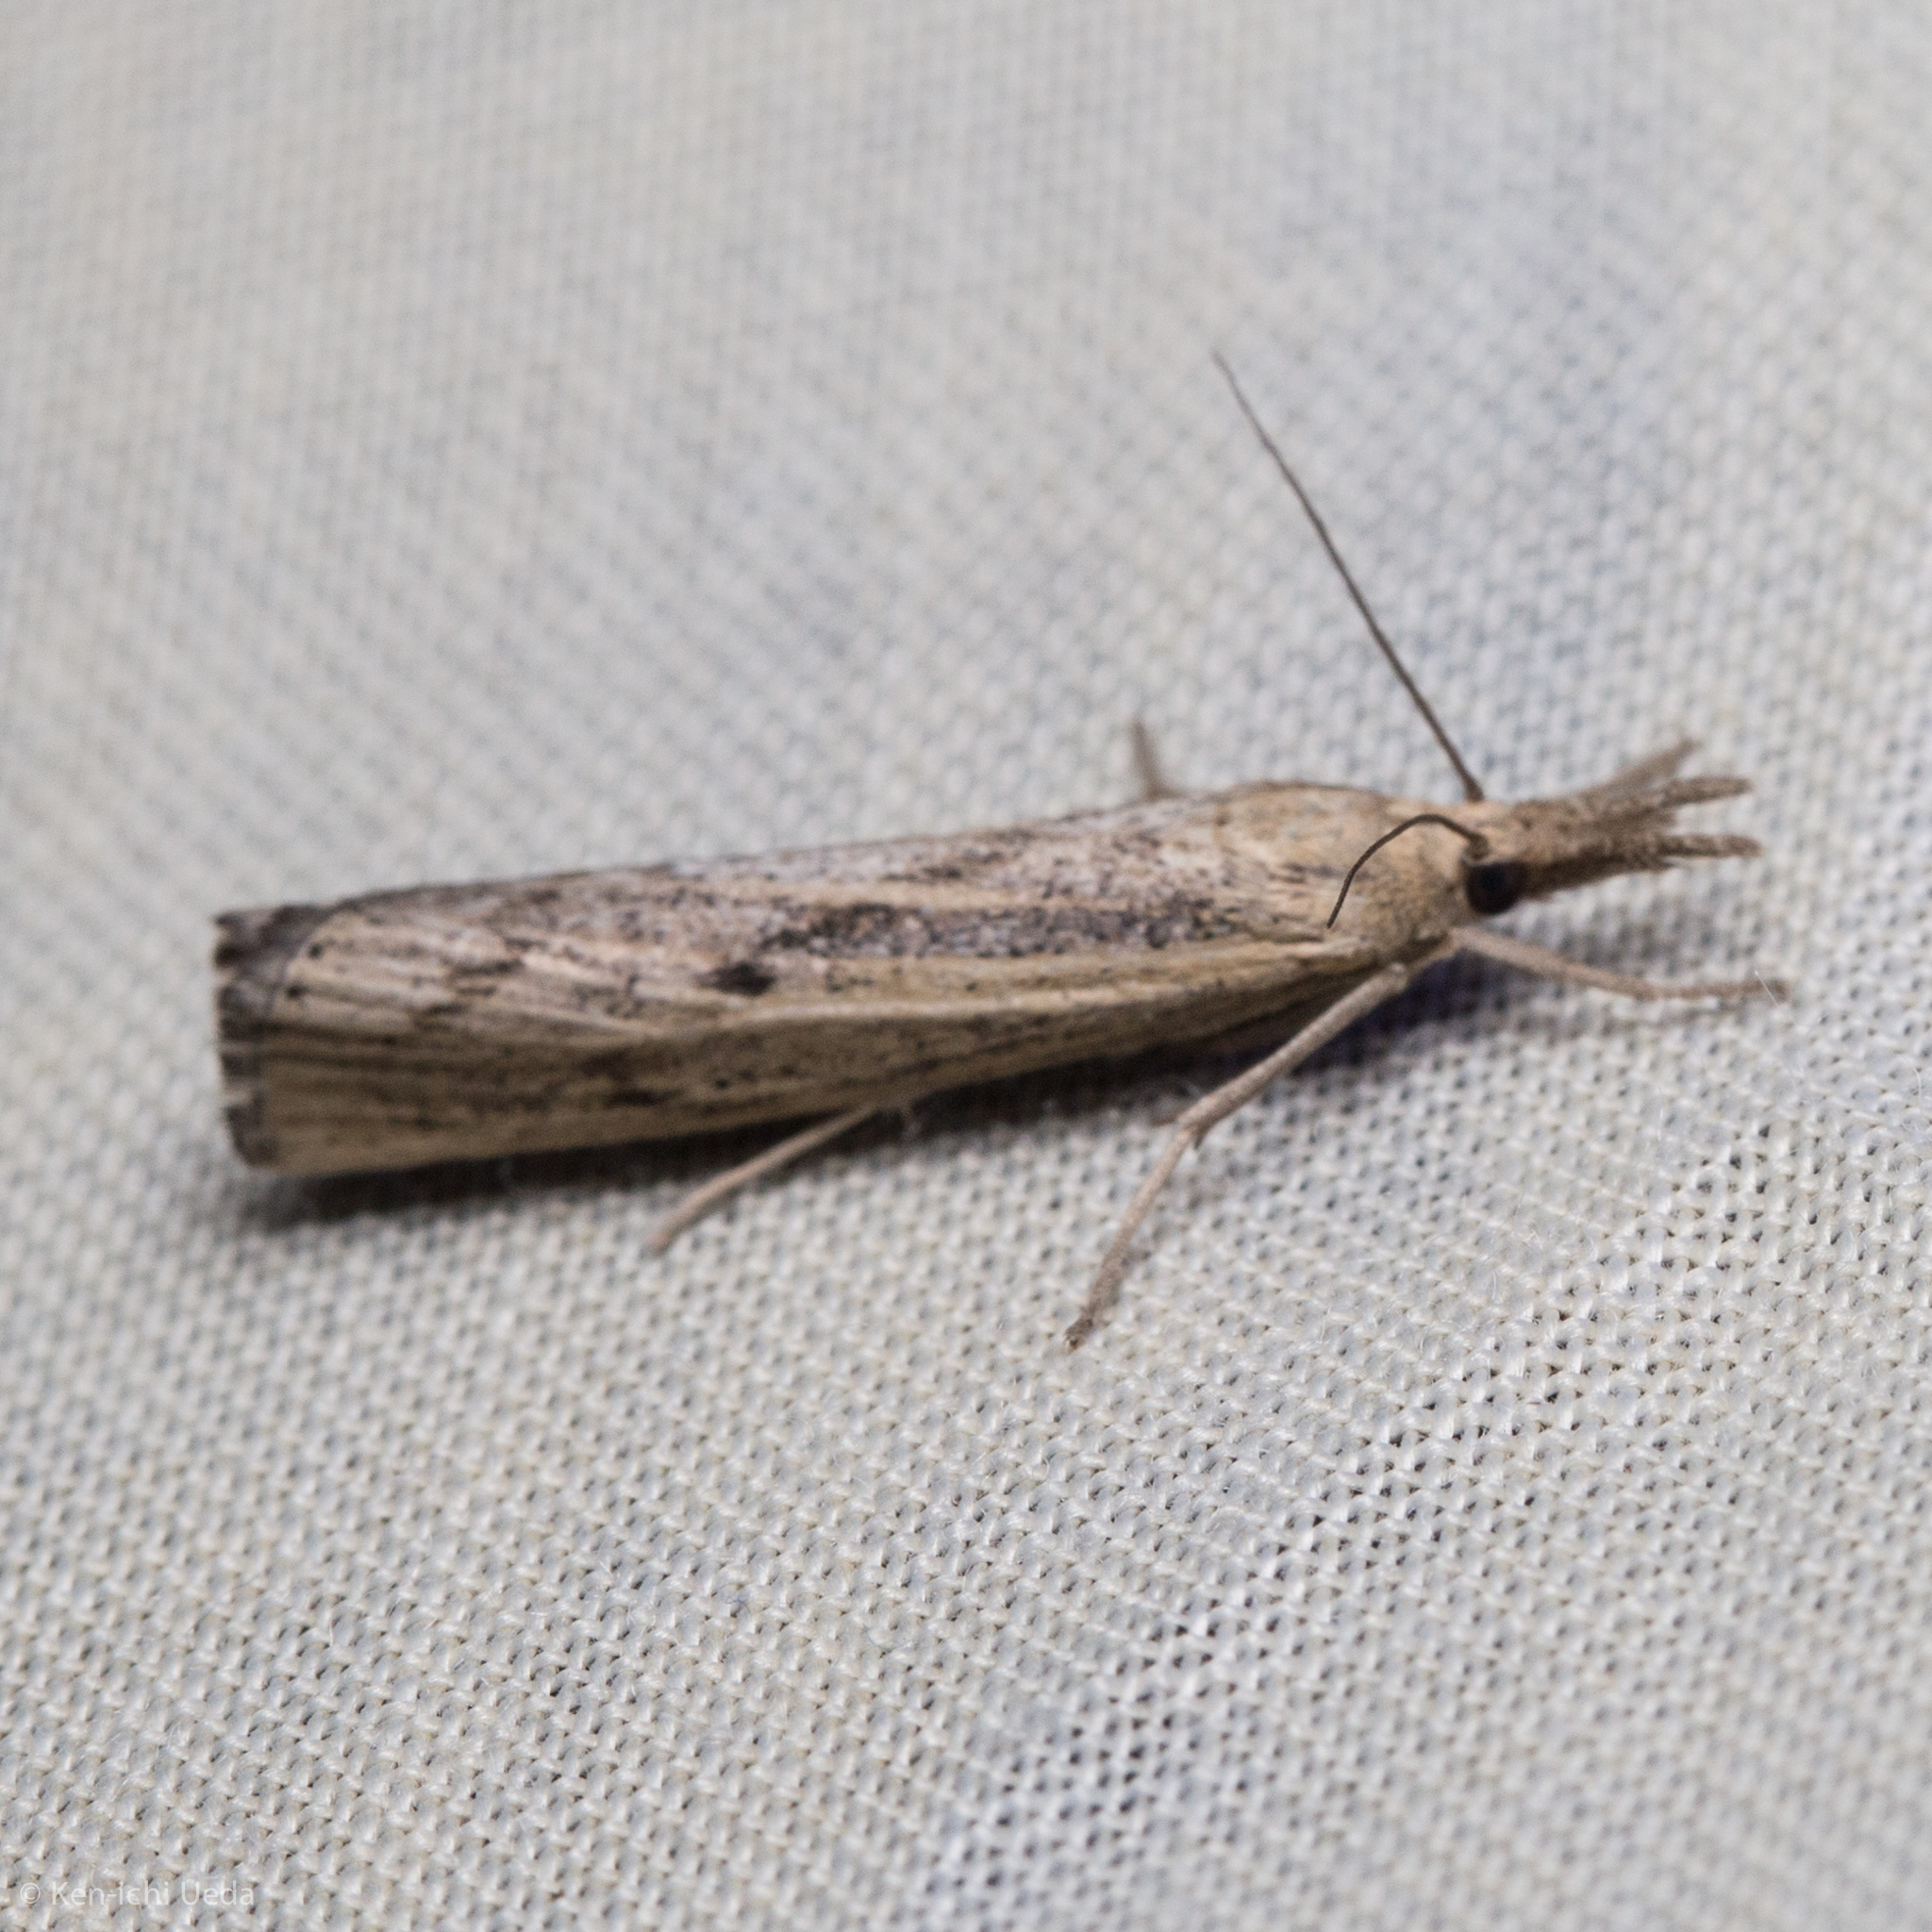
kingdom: Animalia
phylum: Arthropoda
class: Insecta
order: Lepidoptera
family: Crambidae
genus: Pediasia
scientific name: Pediasia trisecta
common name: Sod webworm moth
